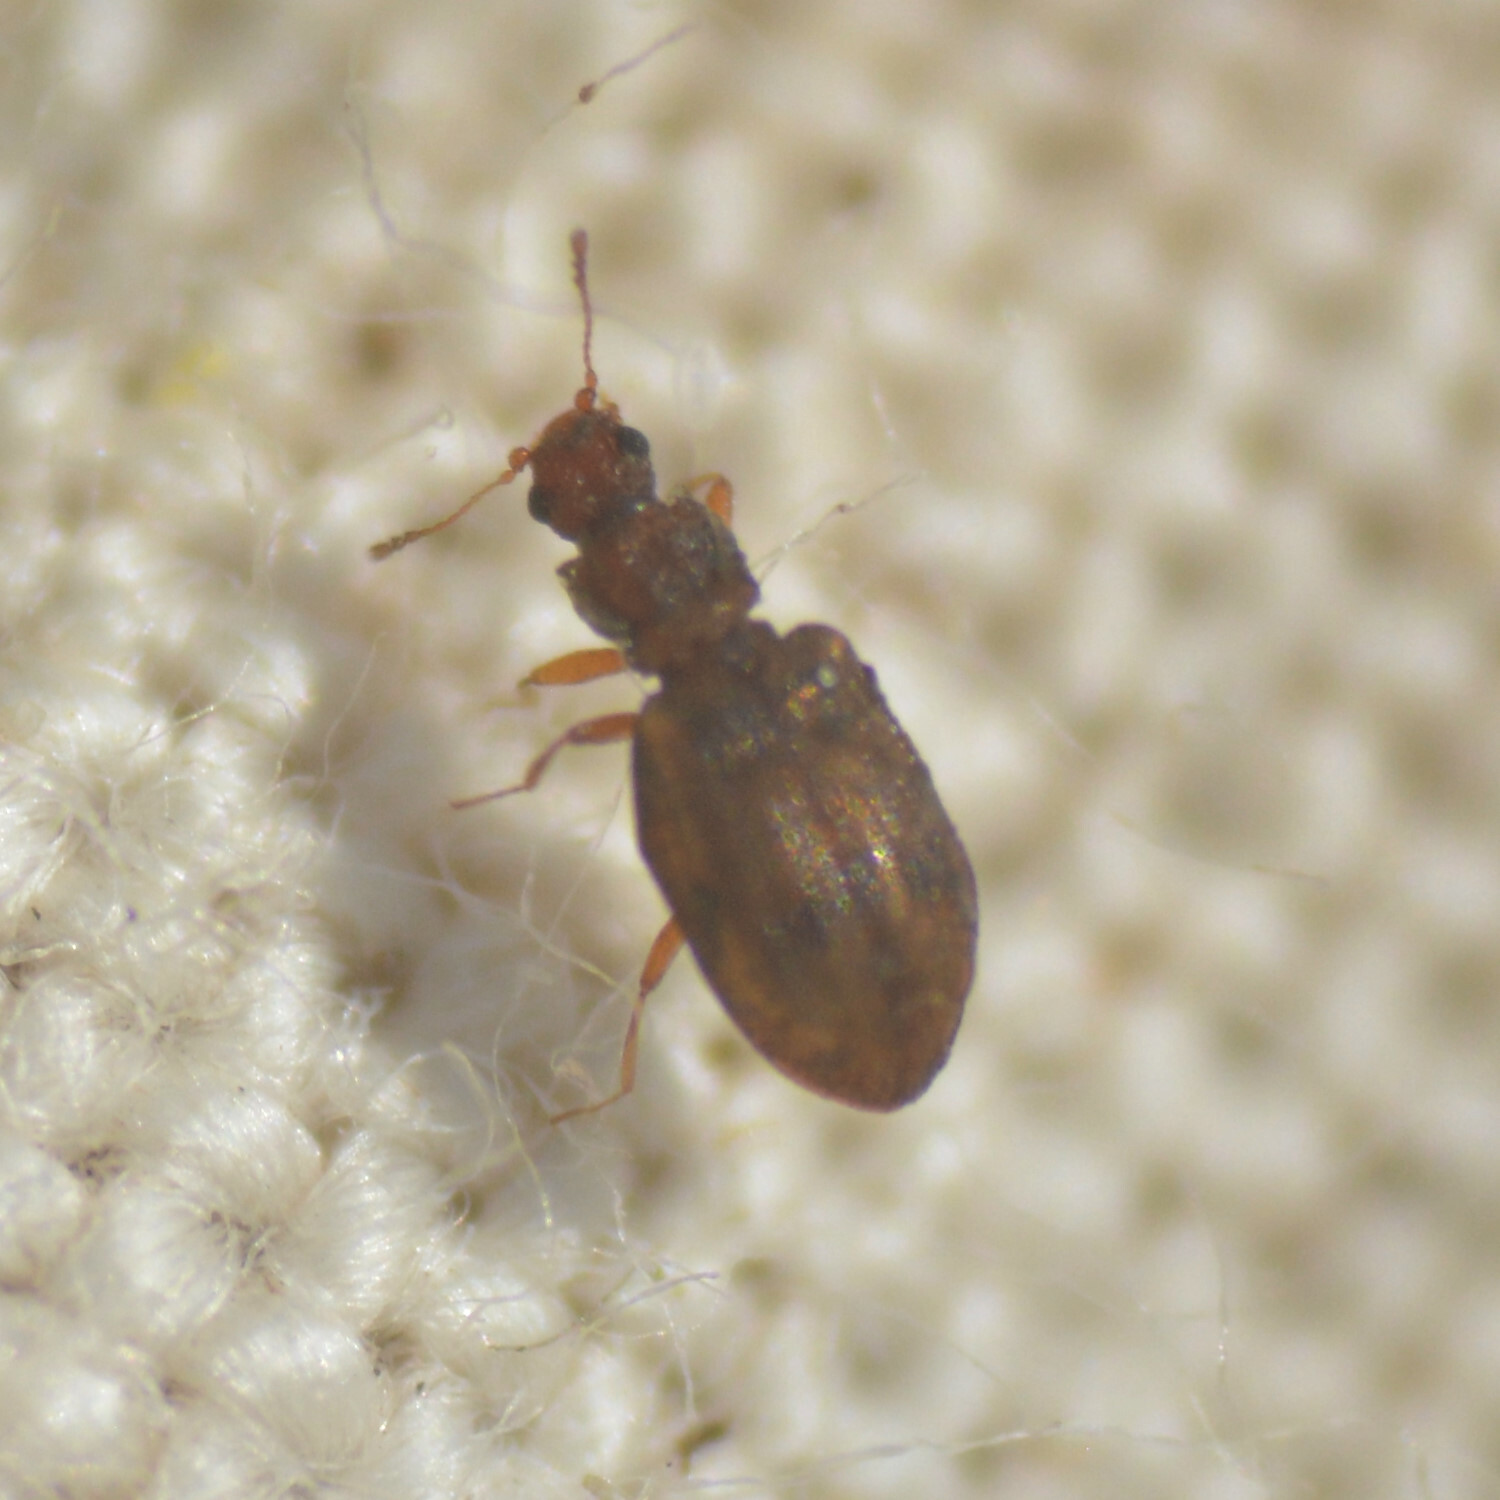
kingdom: Animalia
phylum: Arthropoda
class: Insecta
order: Coleoptera
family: Latridiidae
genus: Cartodere
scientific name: Cartodere bifasciata
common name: Plaster beetle
